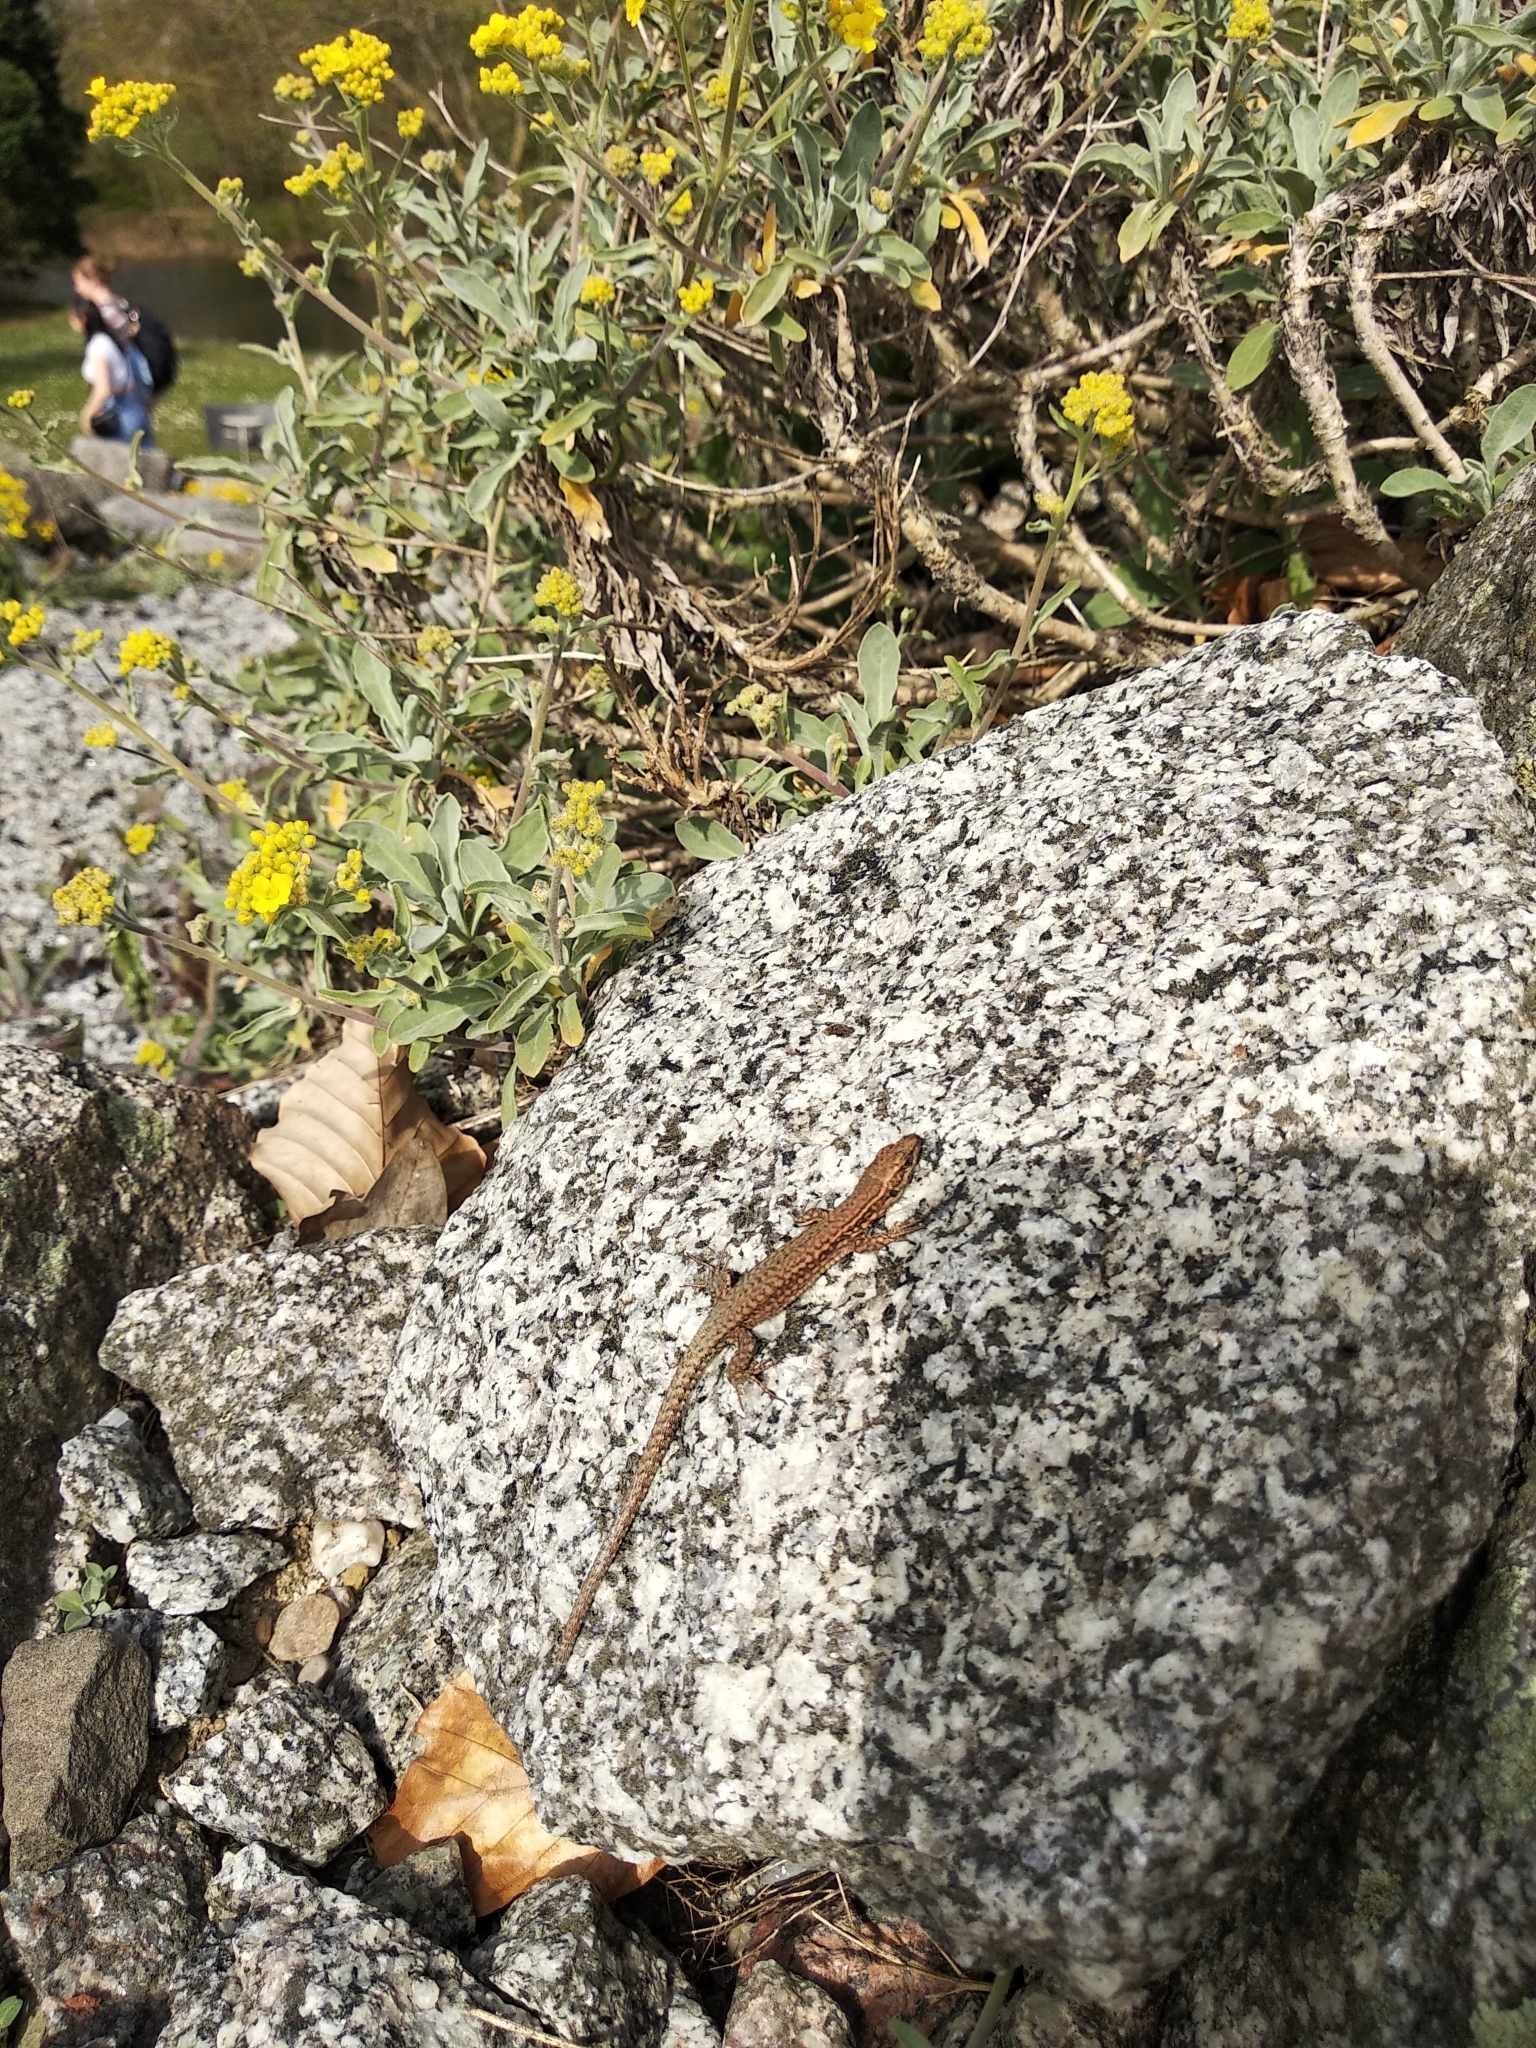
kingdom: Animalia
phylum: Chordata
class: Squamata
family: Lacertidae
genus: Podarcis
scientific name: Podarcis muralis
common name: Common wall lizard
